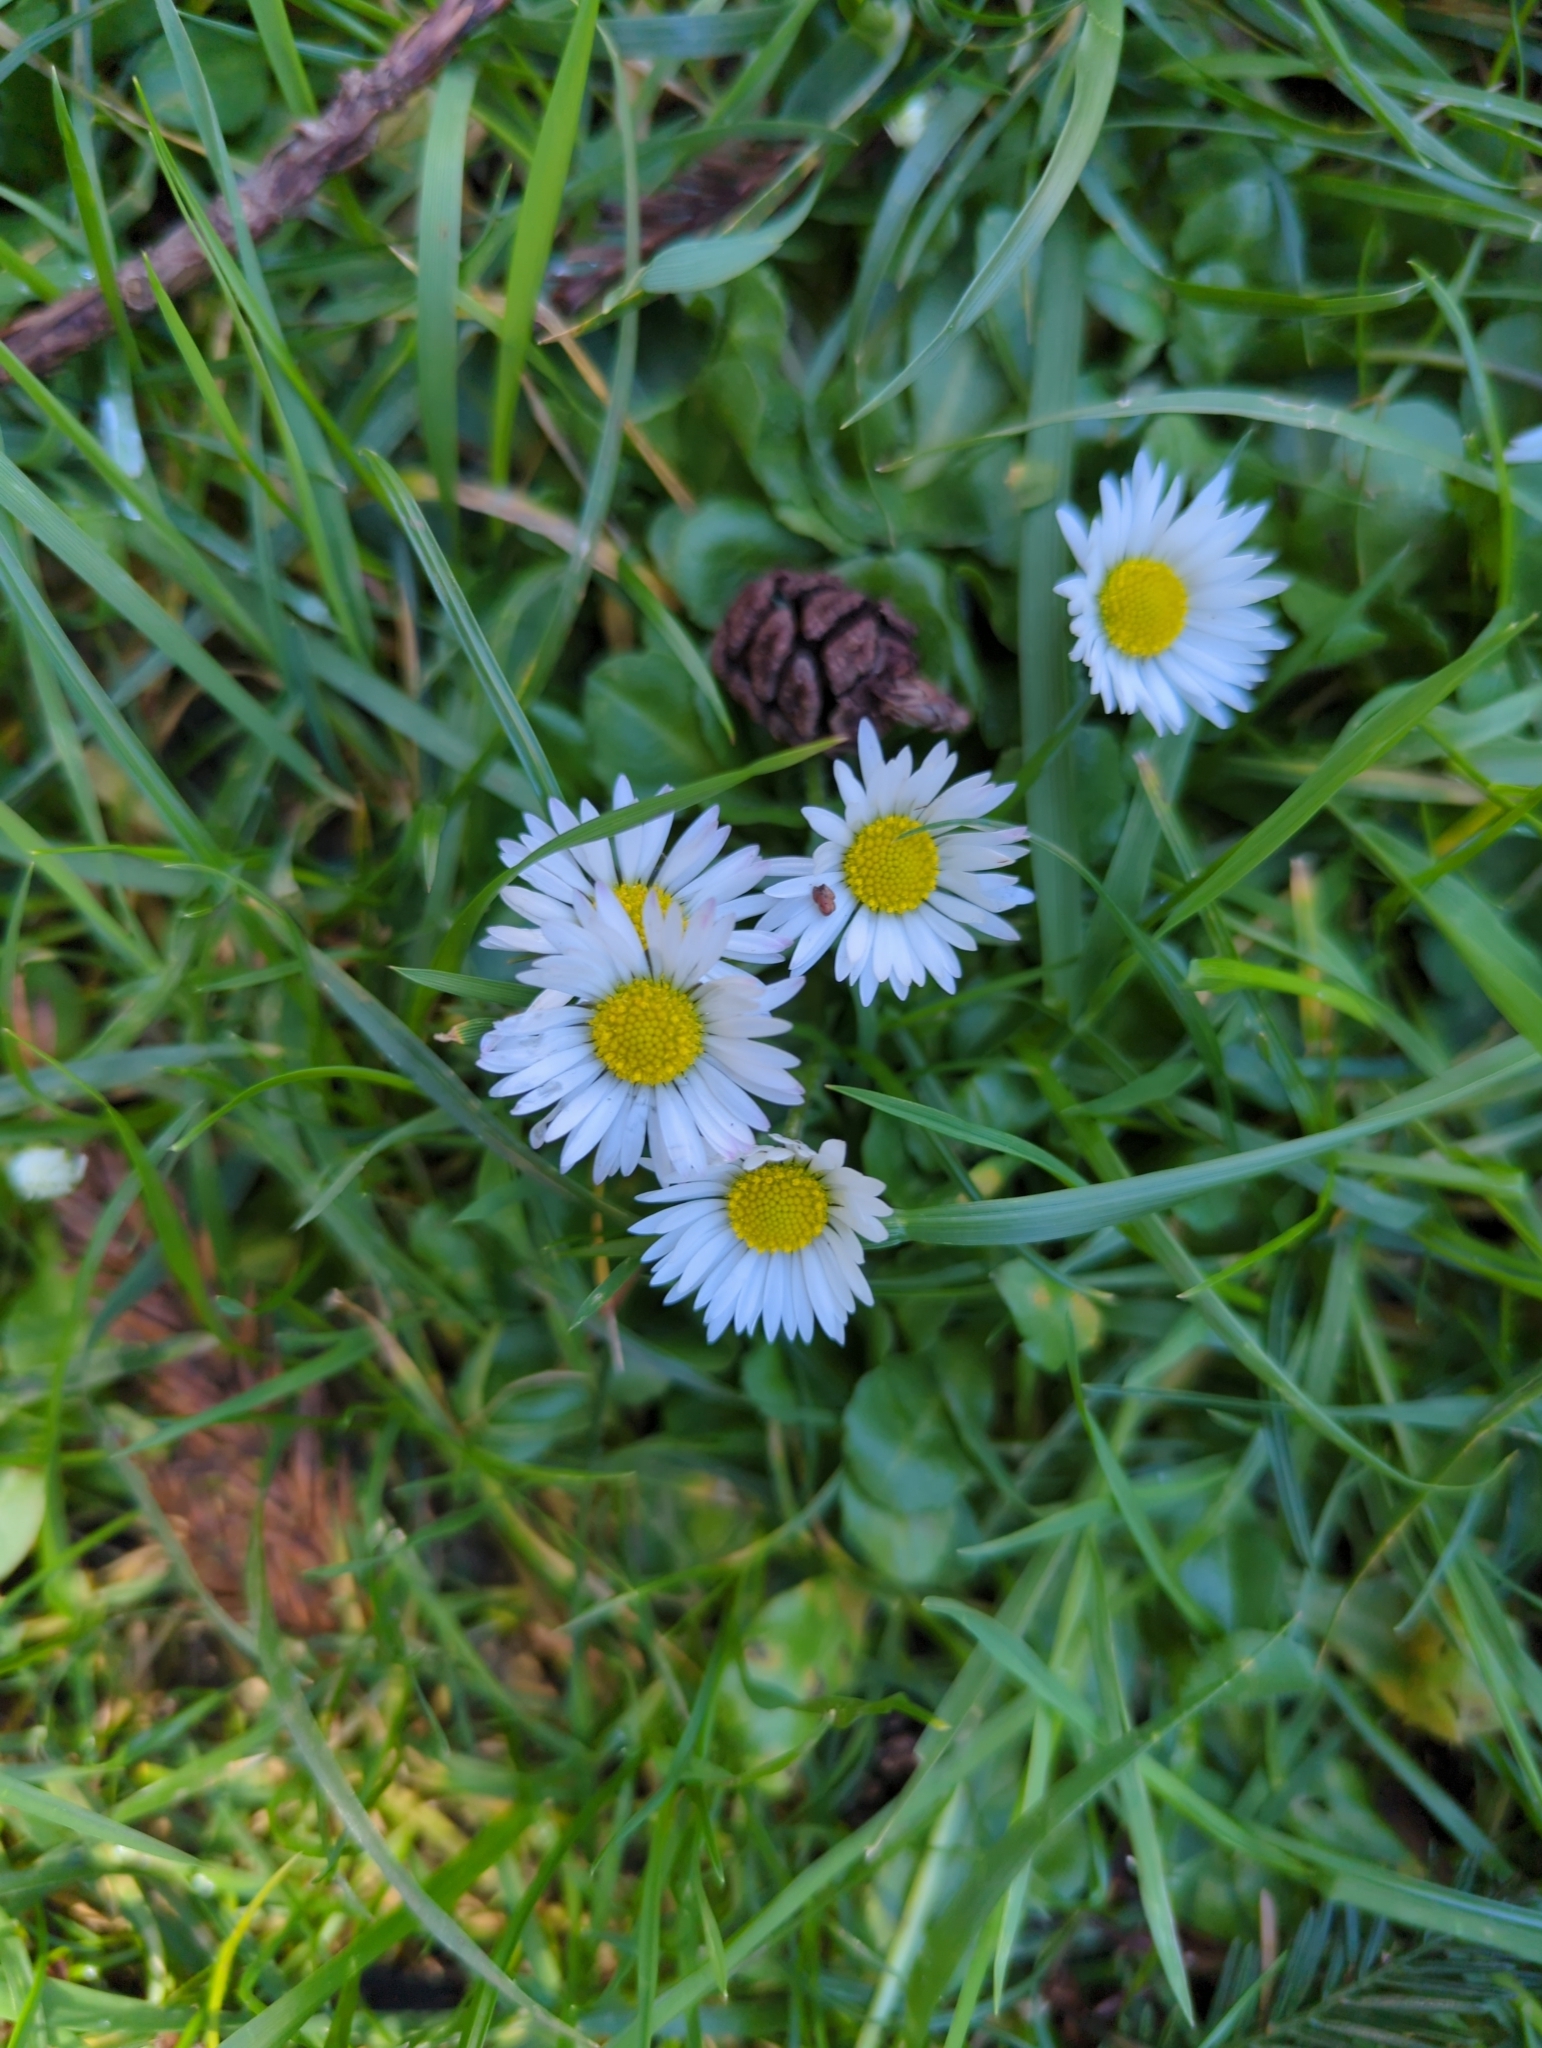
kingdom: Plantae
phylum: Tracheophyta
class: Magnoliopsida
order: Asterales
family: Asteraceae
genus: Bellis
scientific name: Bellis perennis
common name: Lawndaisy
